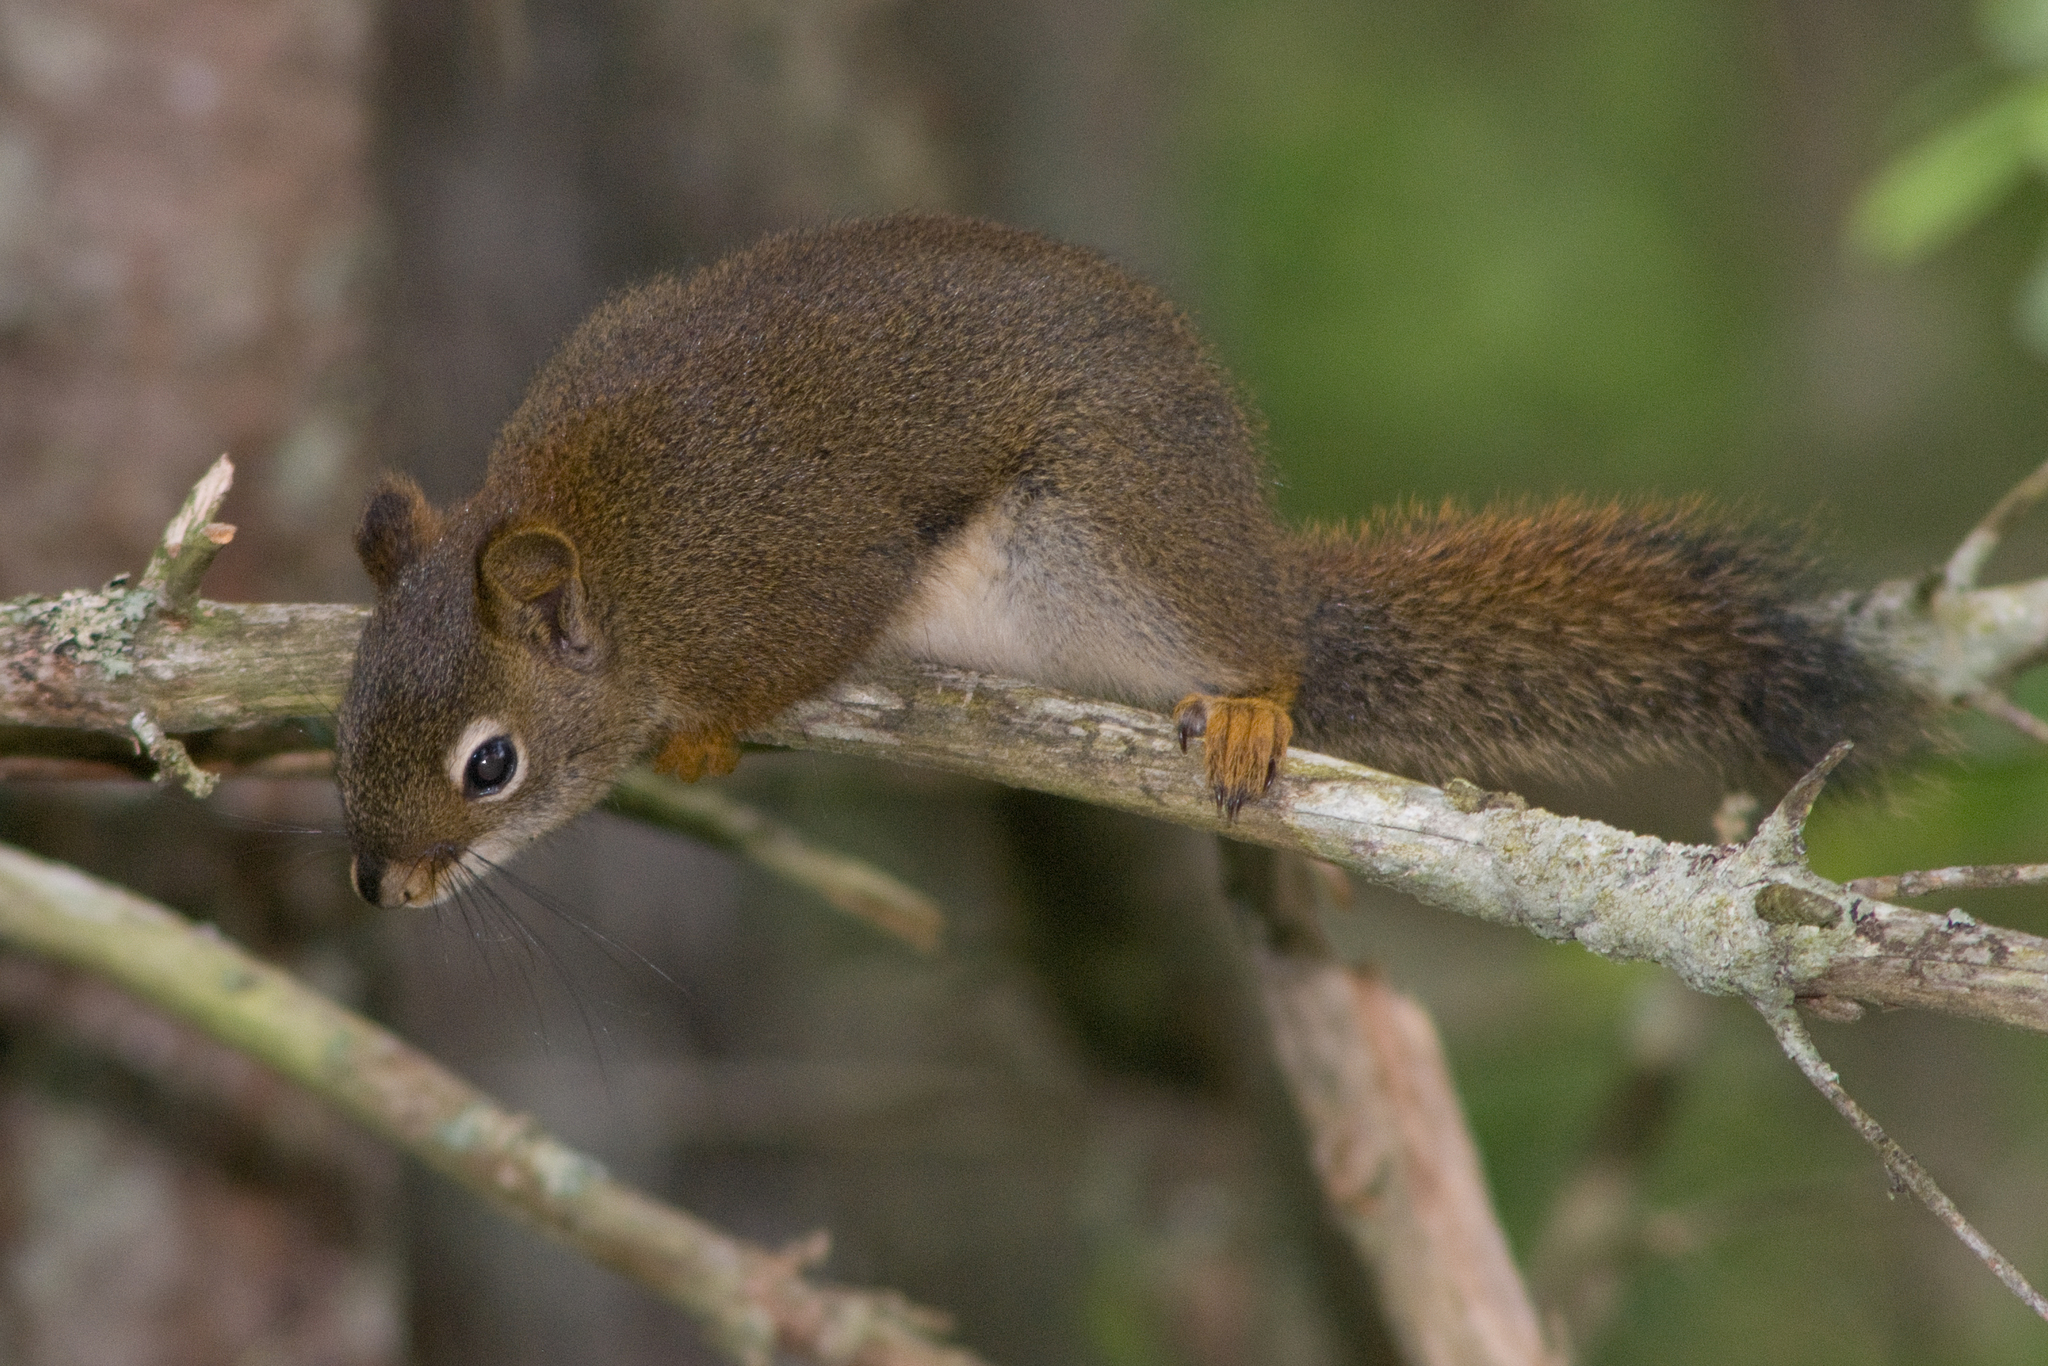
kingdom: Animalia
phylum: Chordata
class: Mammalia
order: Rodentia
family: Sciuridae
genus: Tamiasciurus
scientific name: Tamiasciurus hudsonicus
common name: Red squirrel
